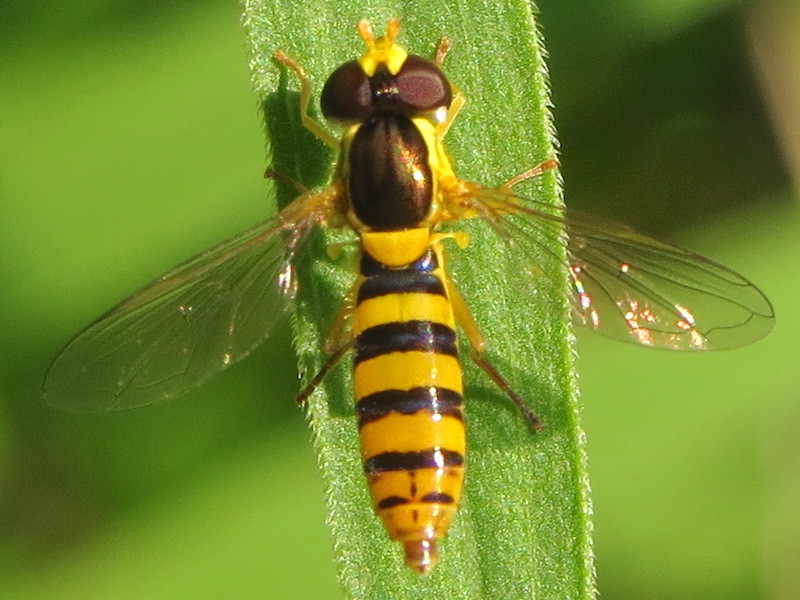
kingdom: Animalia
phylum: Arthropoda
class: Insecta
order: Diptera
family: Syrphidae
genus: Sphaerophoria
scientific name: Sphaerophoria
